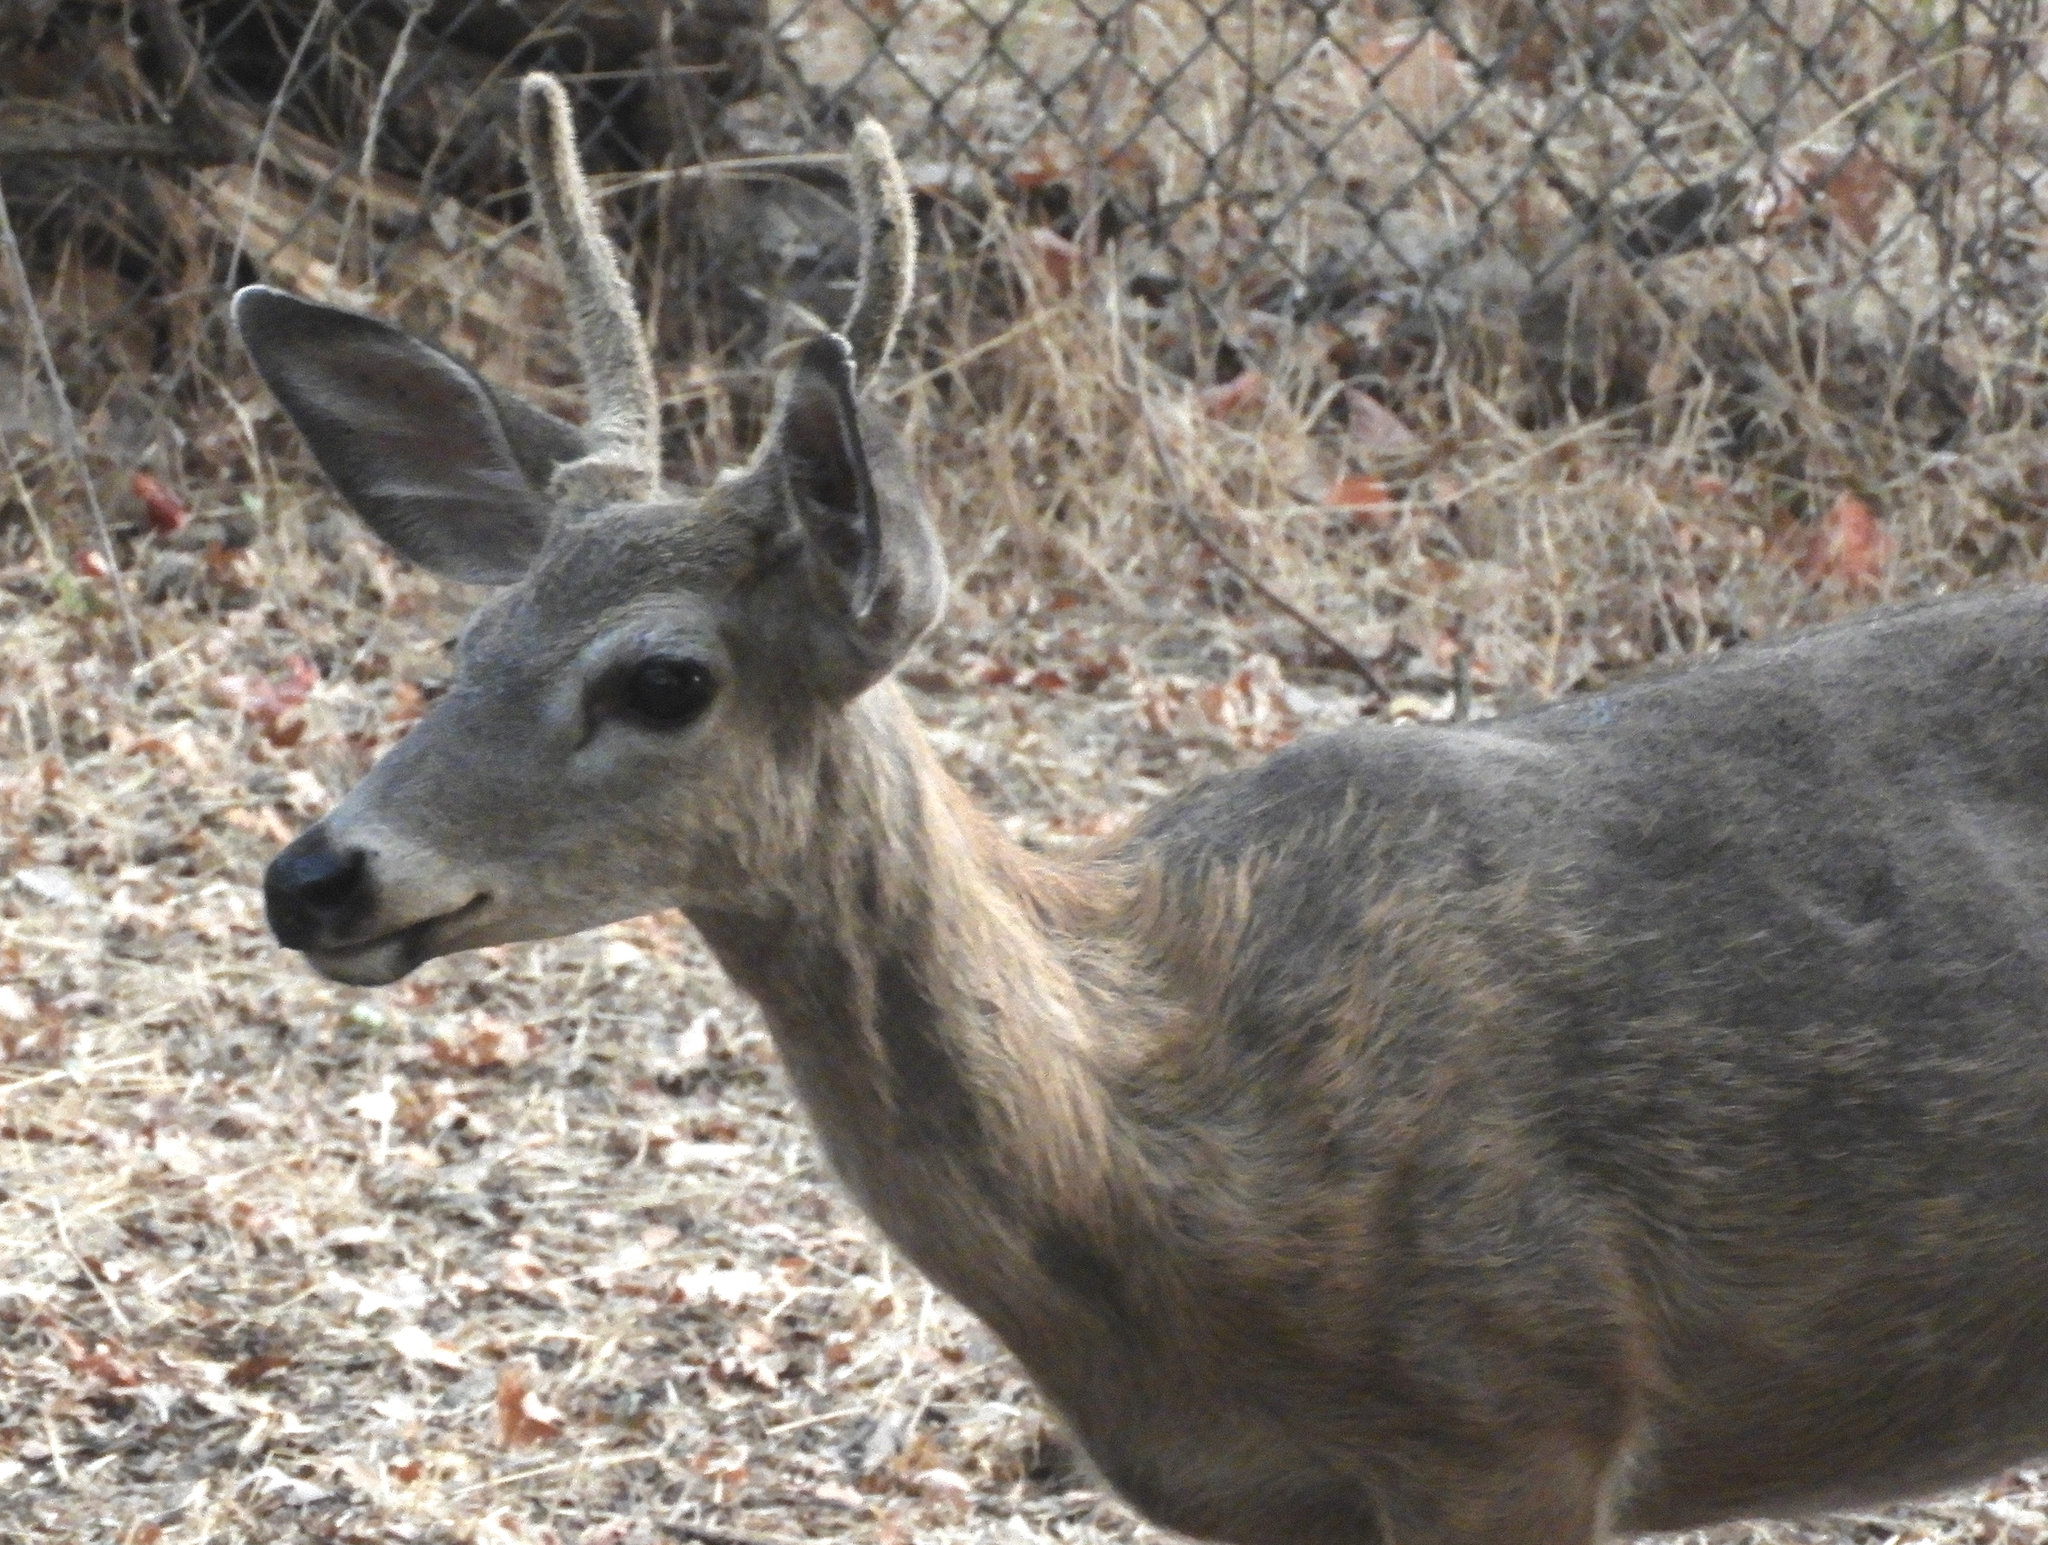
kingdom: Animalia
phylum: Chordata
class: Mammalia
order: Artiodactyla
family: Cervidae
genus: Odocoileus
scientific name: Odocoileus hemionus
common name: Mule deer
